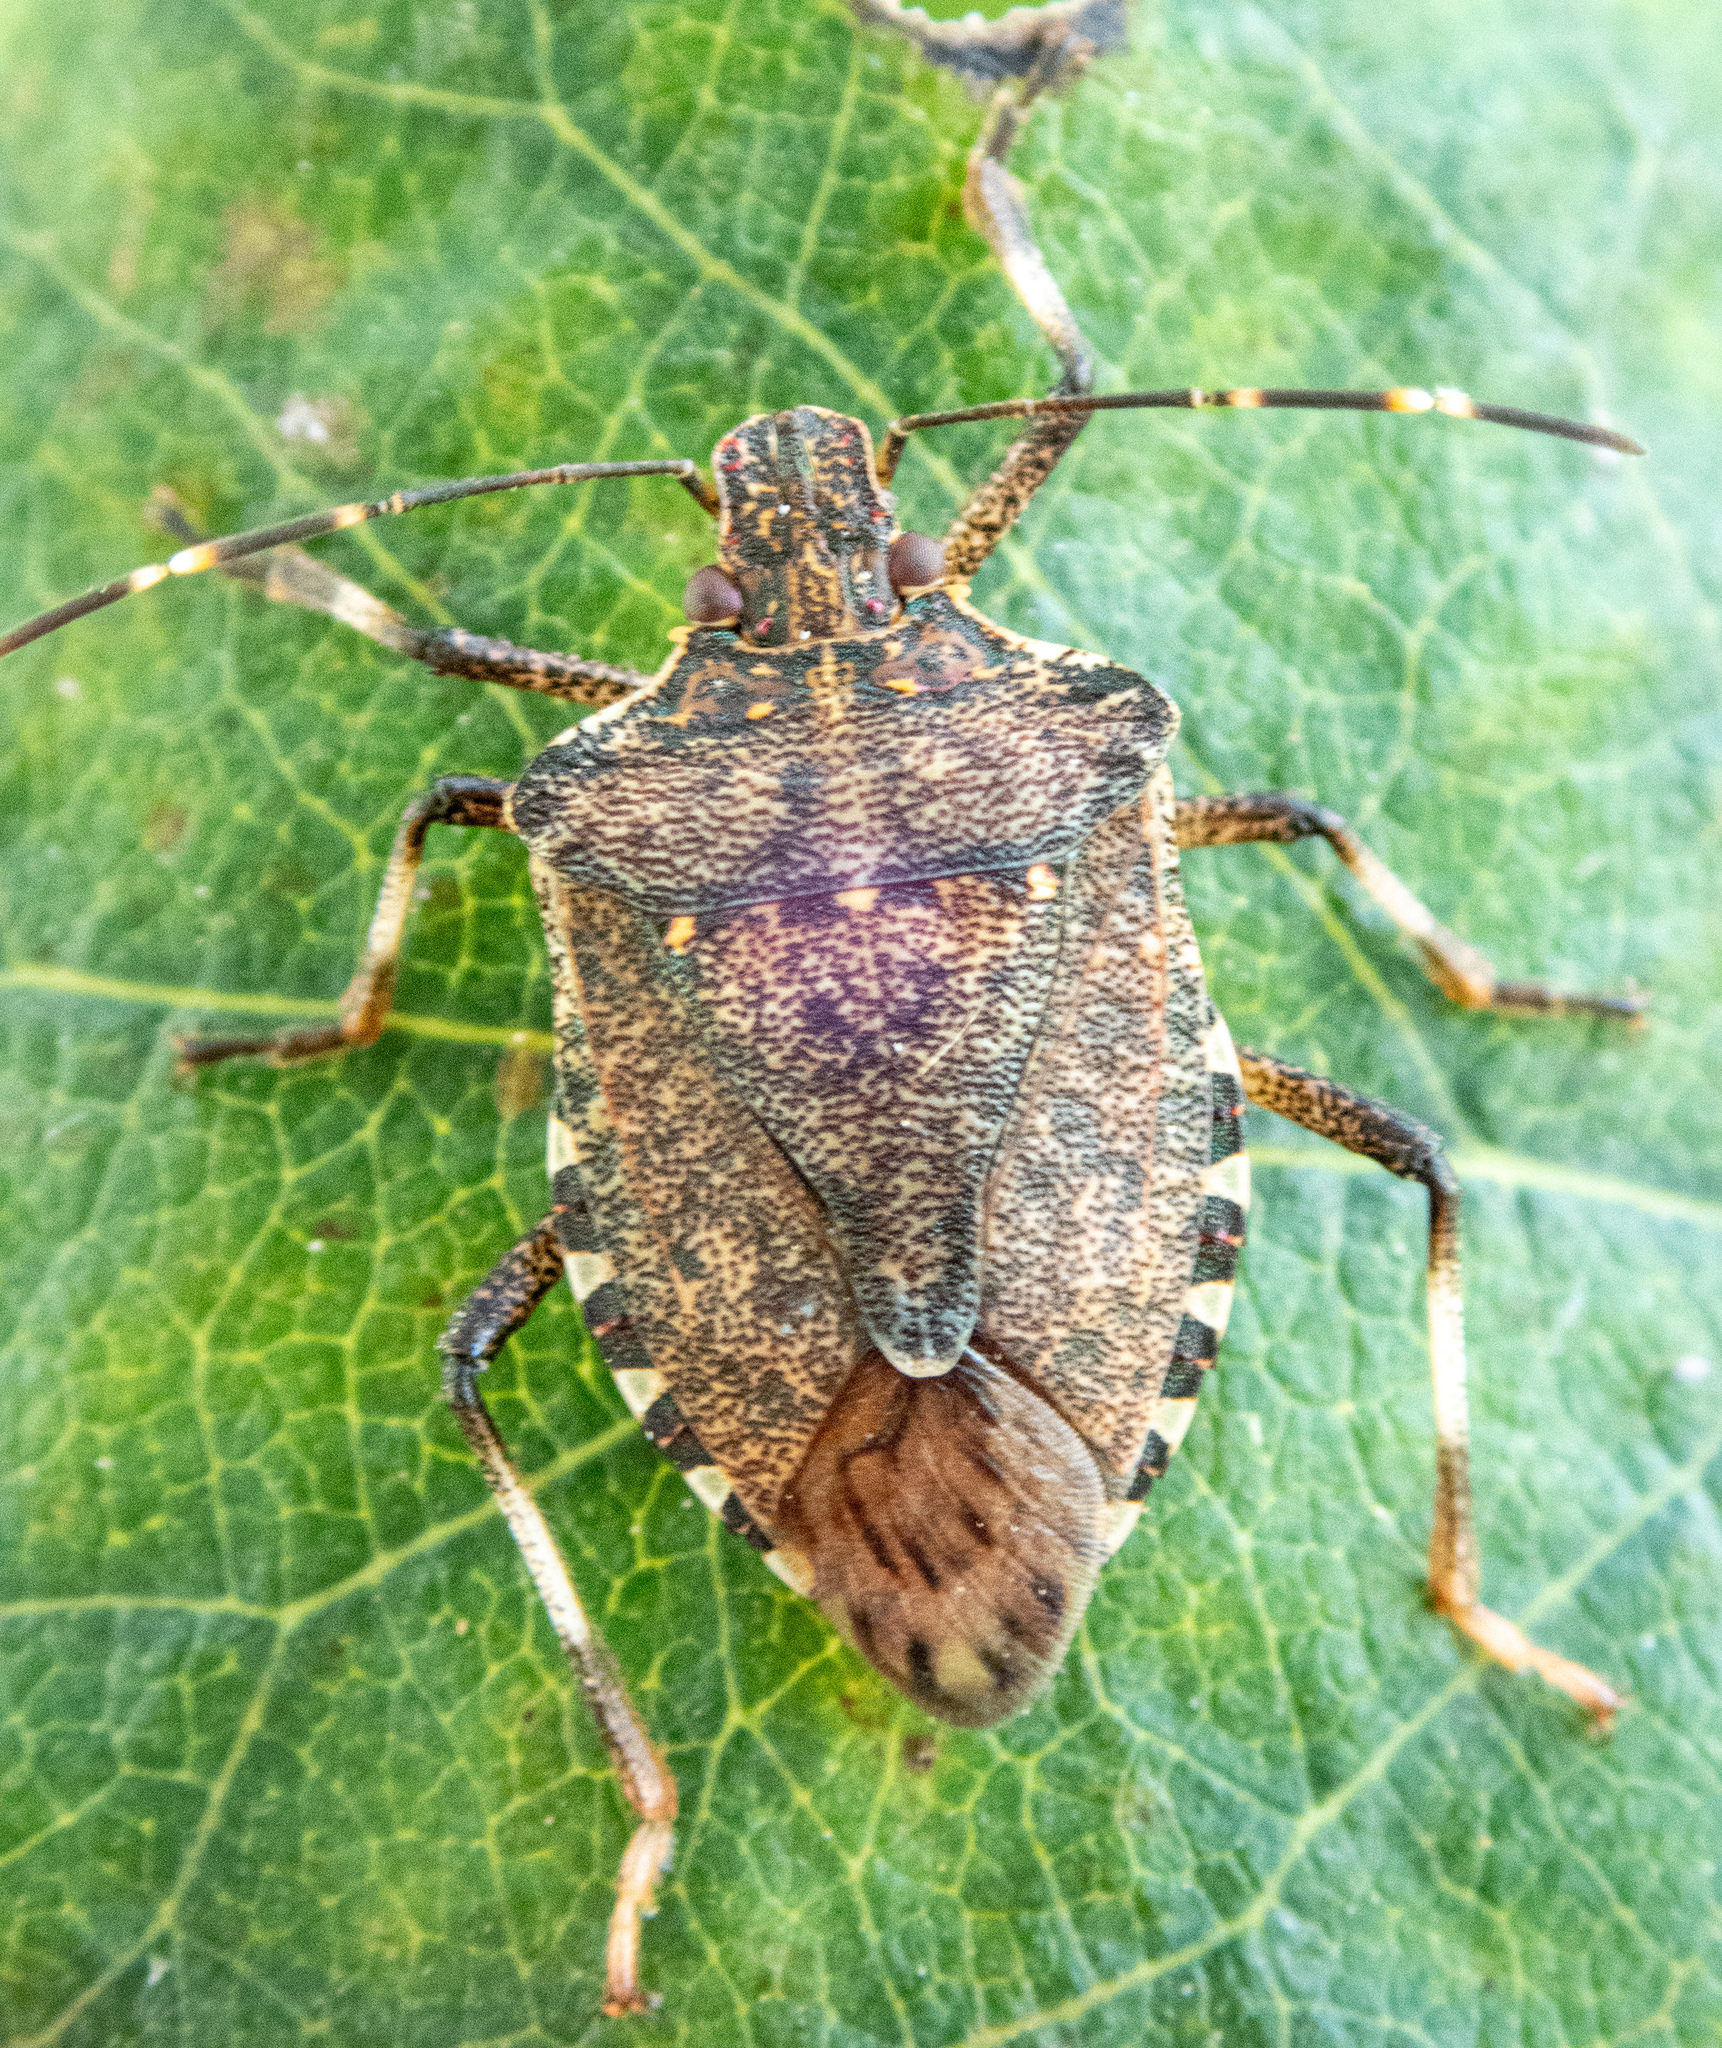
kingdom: Animalia
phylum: Arthropoda
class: Insecta
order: Hemiptera
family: Pentatomidae
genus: Halyomorpha
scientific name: Halyomorpha halys
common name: Brown marmorated stink bug
